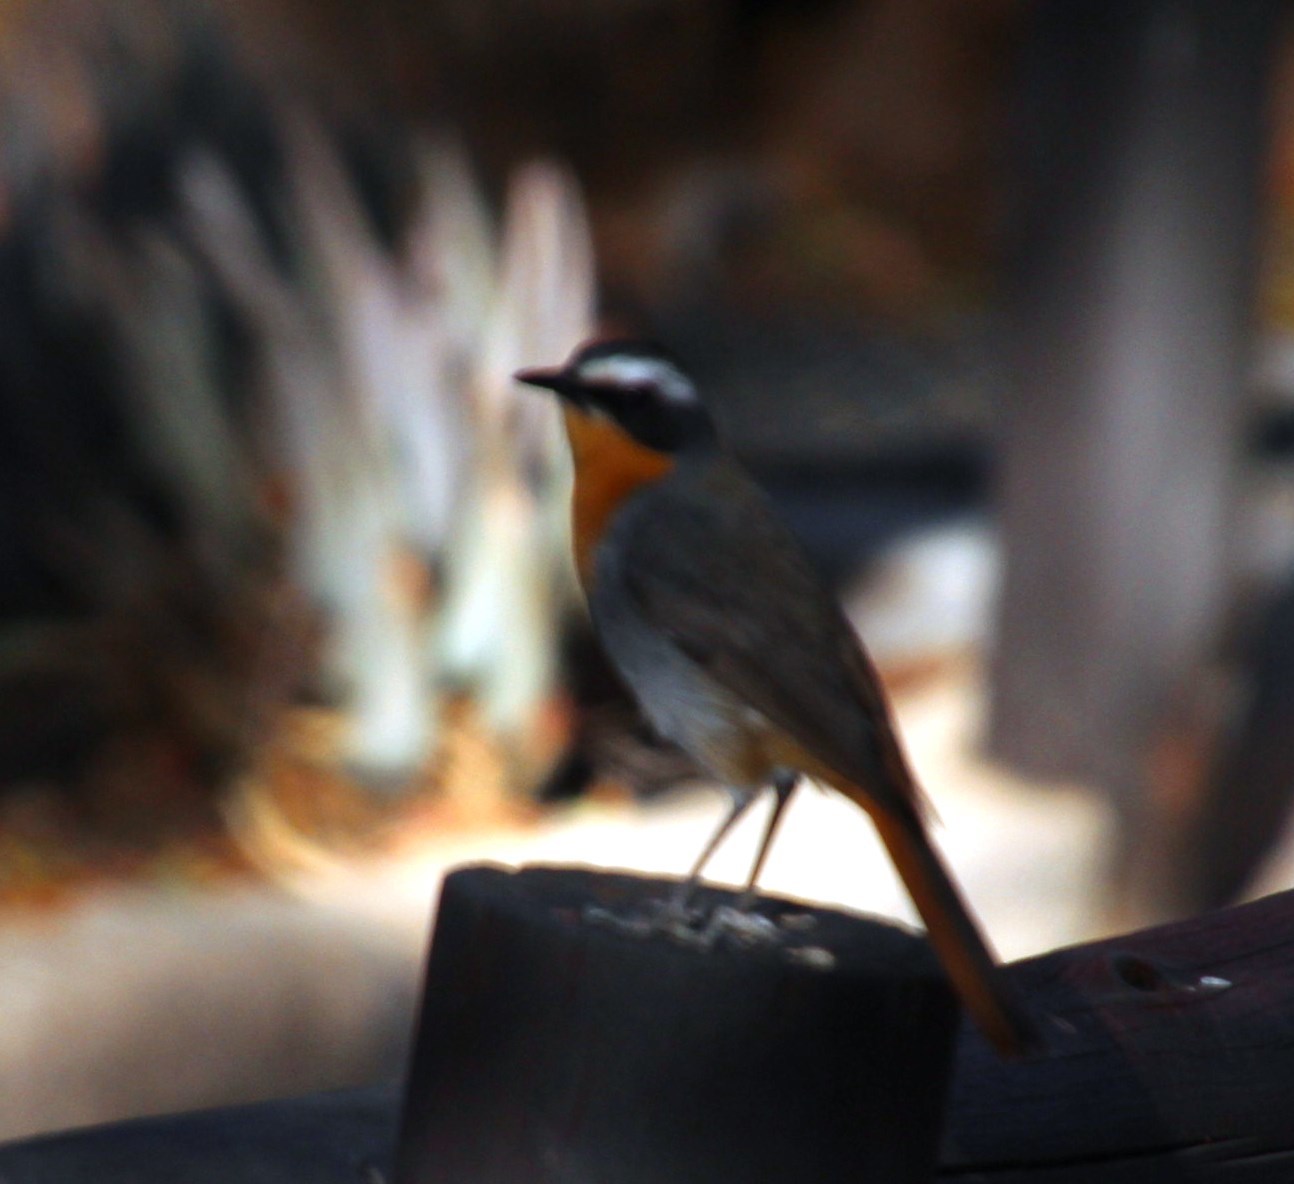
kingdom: Animalia
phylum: Chordata
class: Aves
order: Passeriformes
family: Muscicapidae
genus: Cossypha
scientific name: Cossypha caffra
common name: Cape robin-chat
